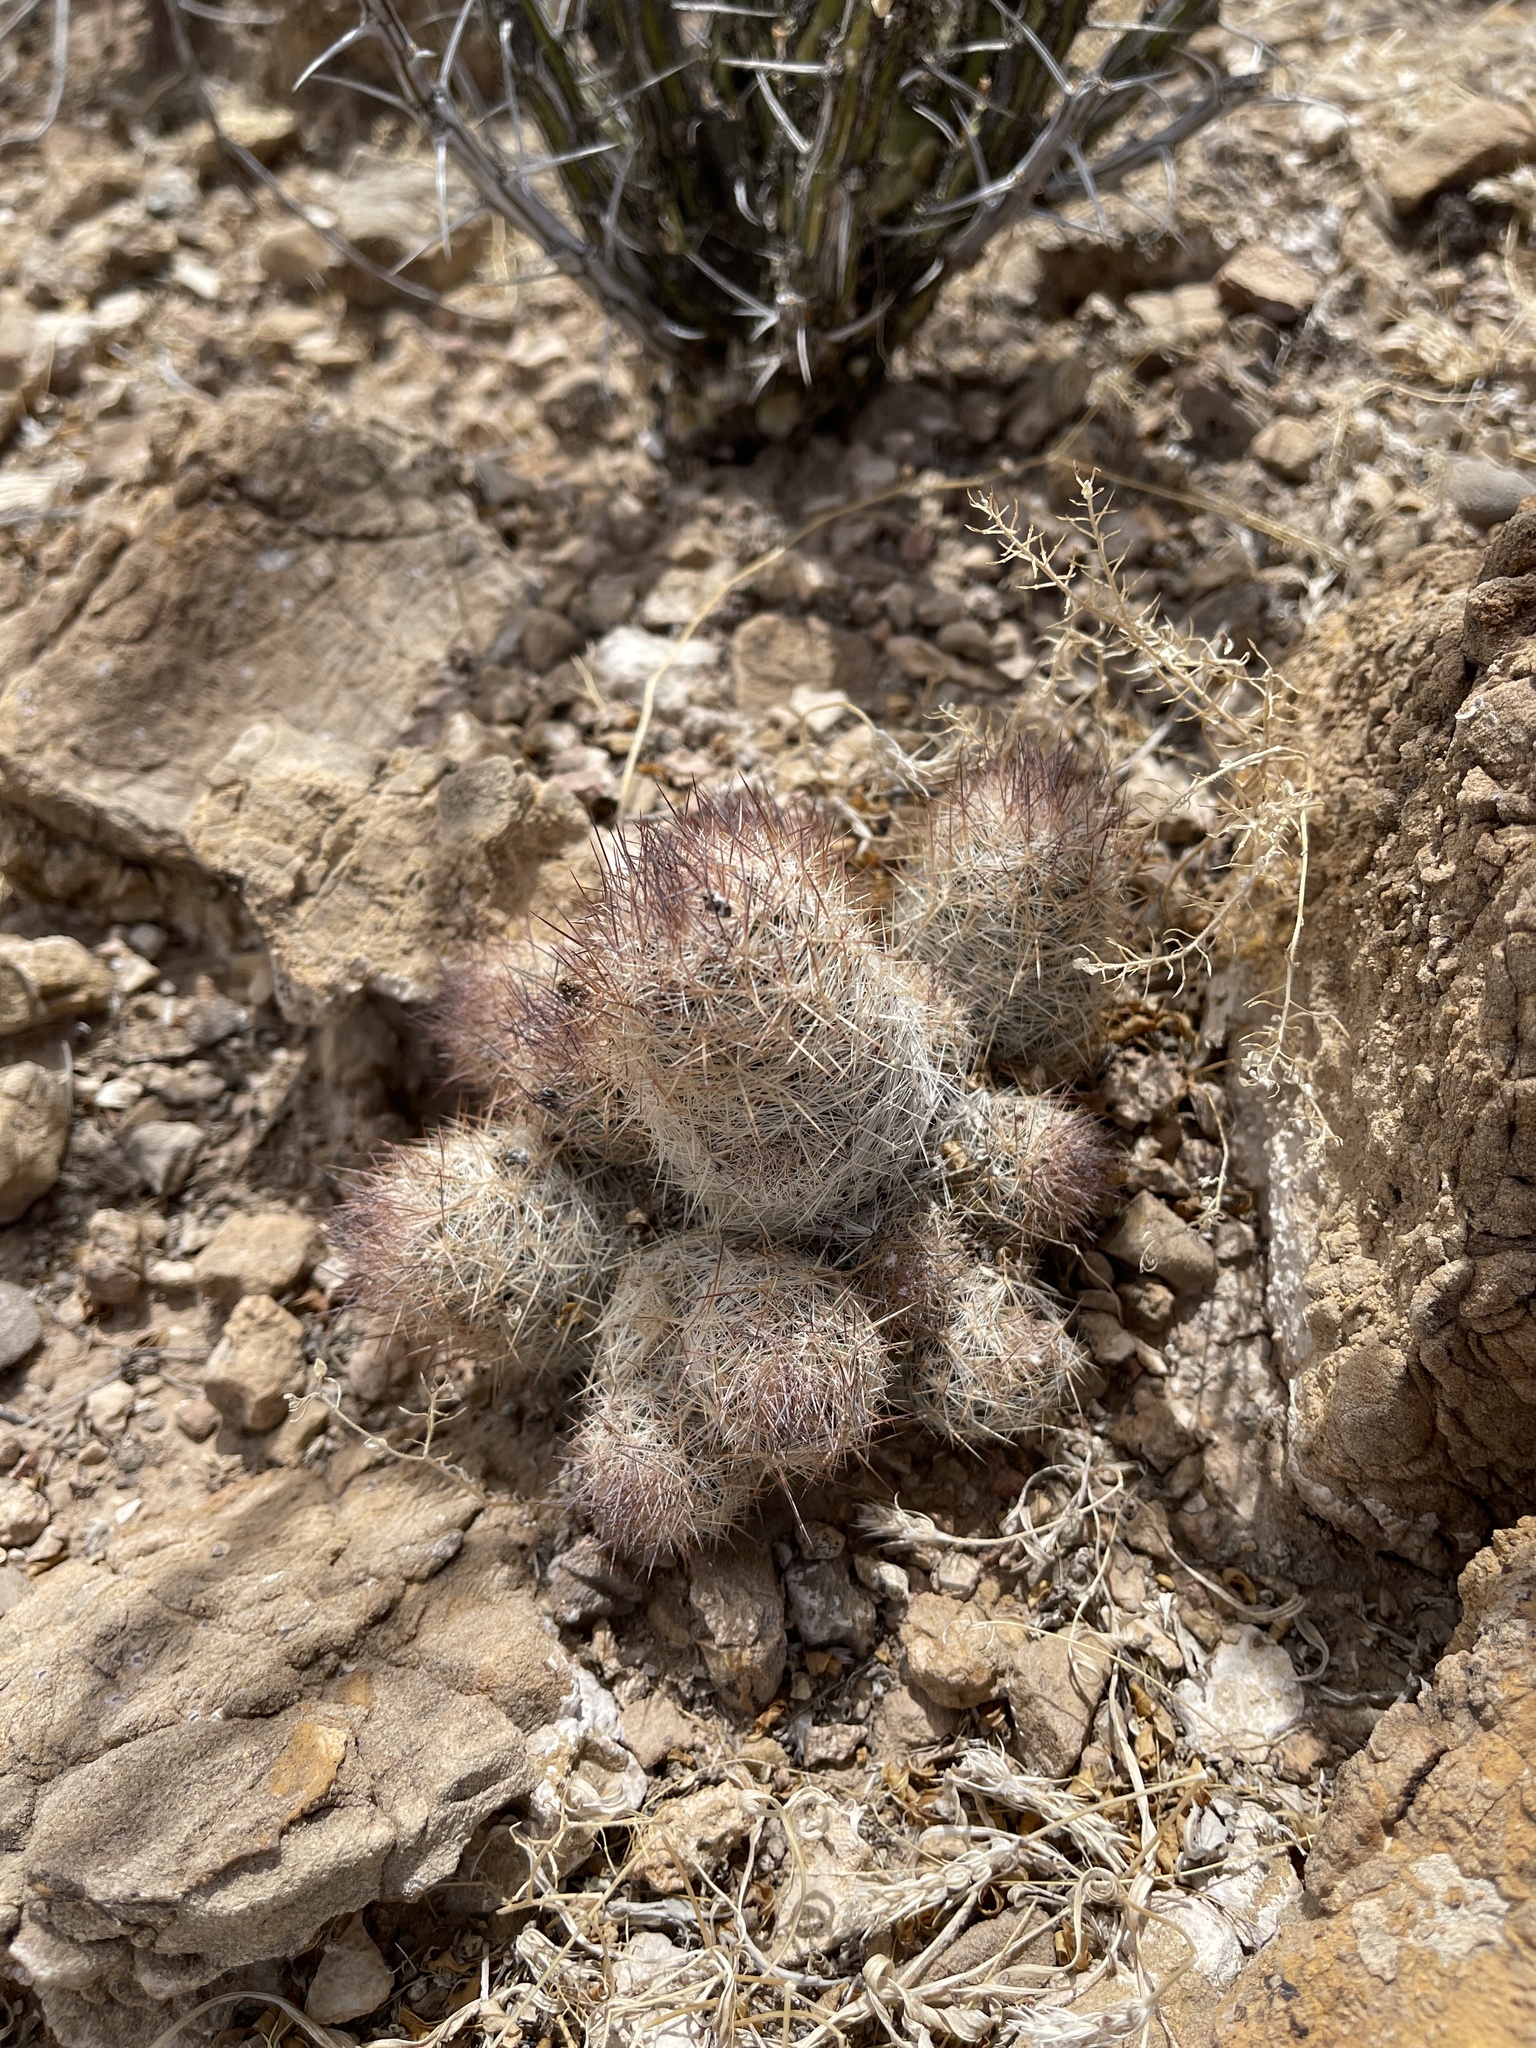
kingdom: Plantae
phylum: Tracheophyta
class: Magnoliopsida
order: Caryophyllales
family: Cactaceae
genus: Pelecyphora
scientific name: Pelecyphora tuberculosa
